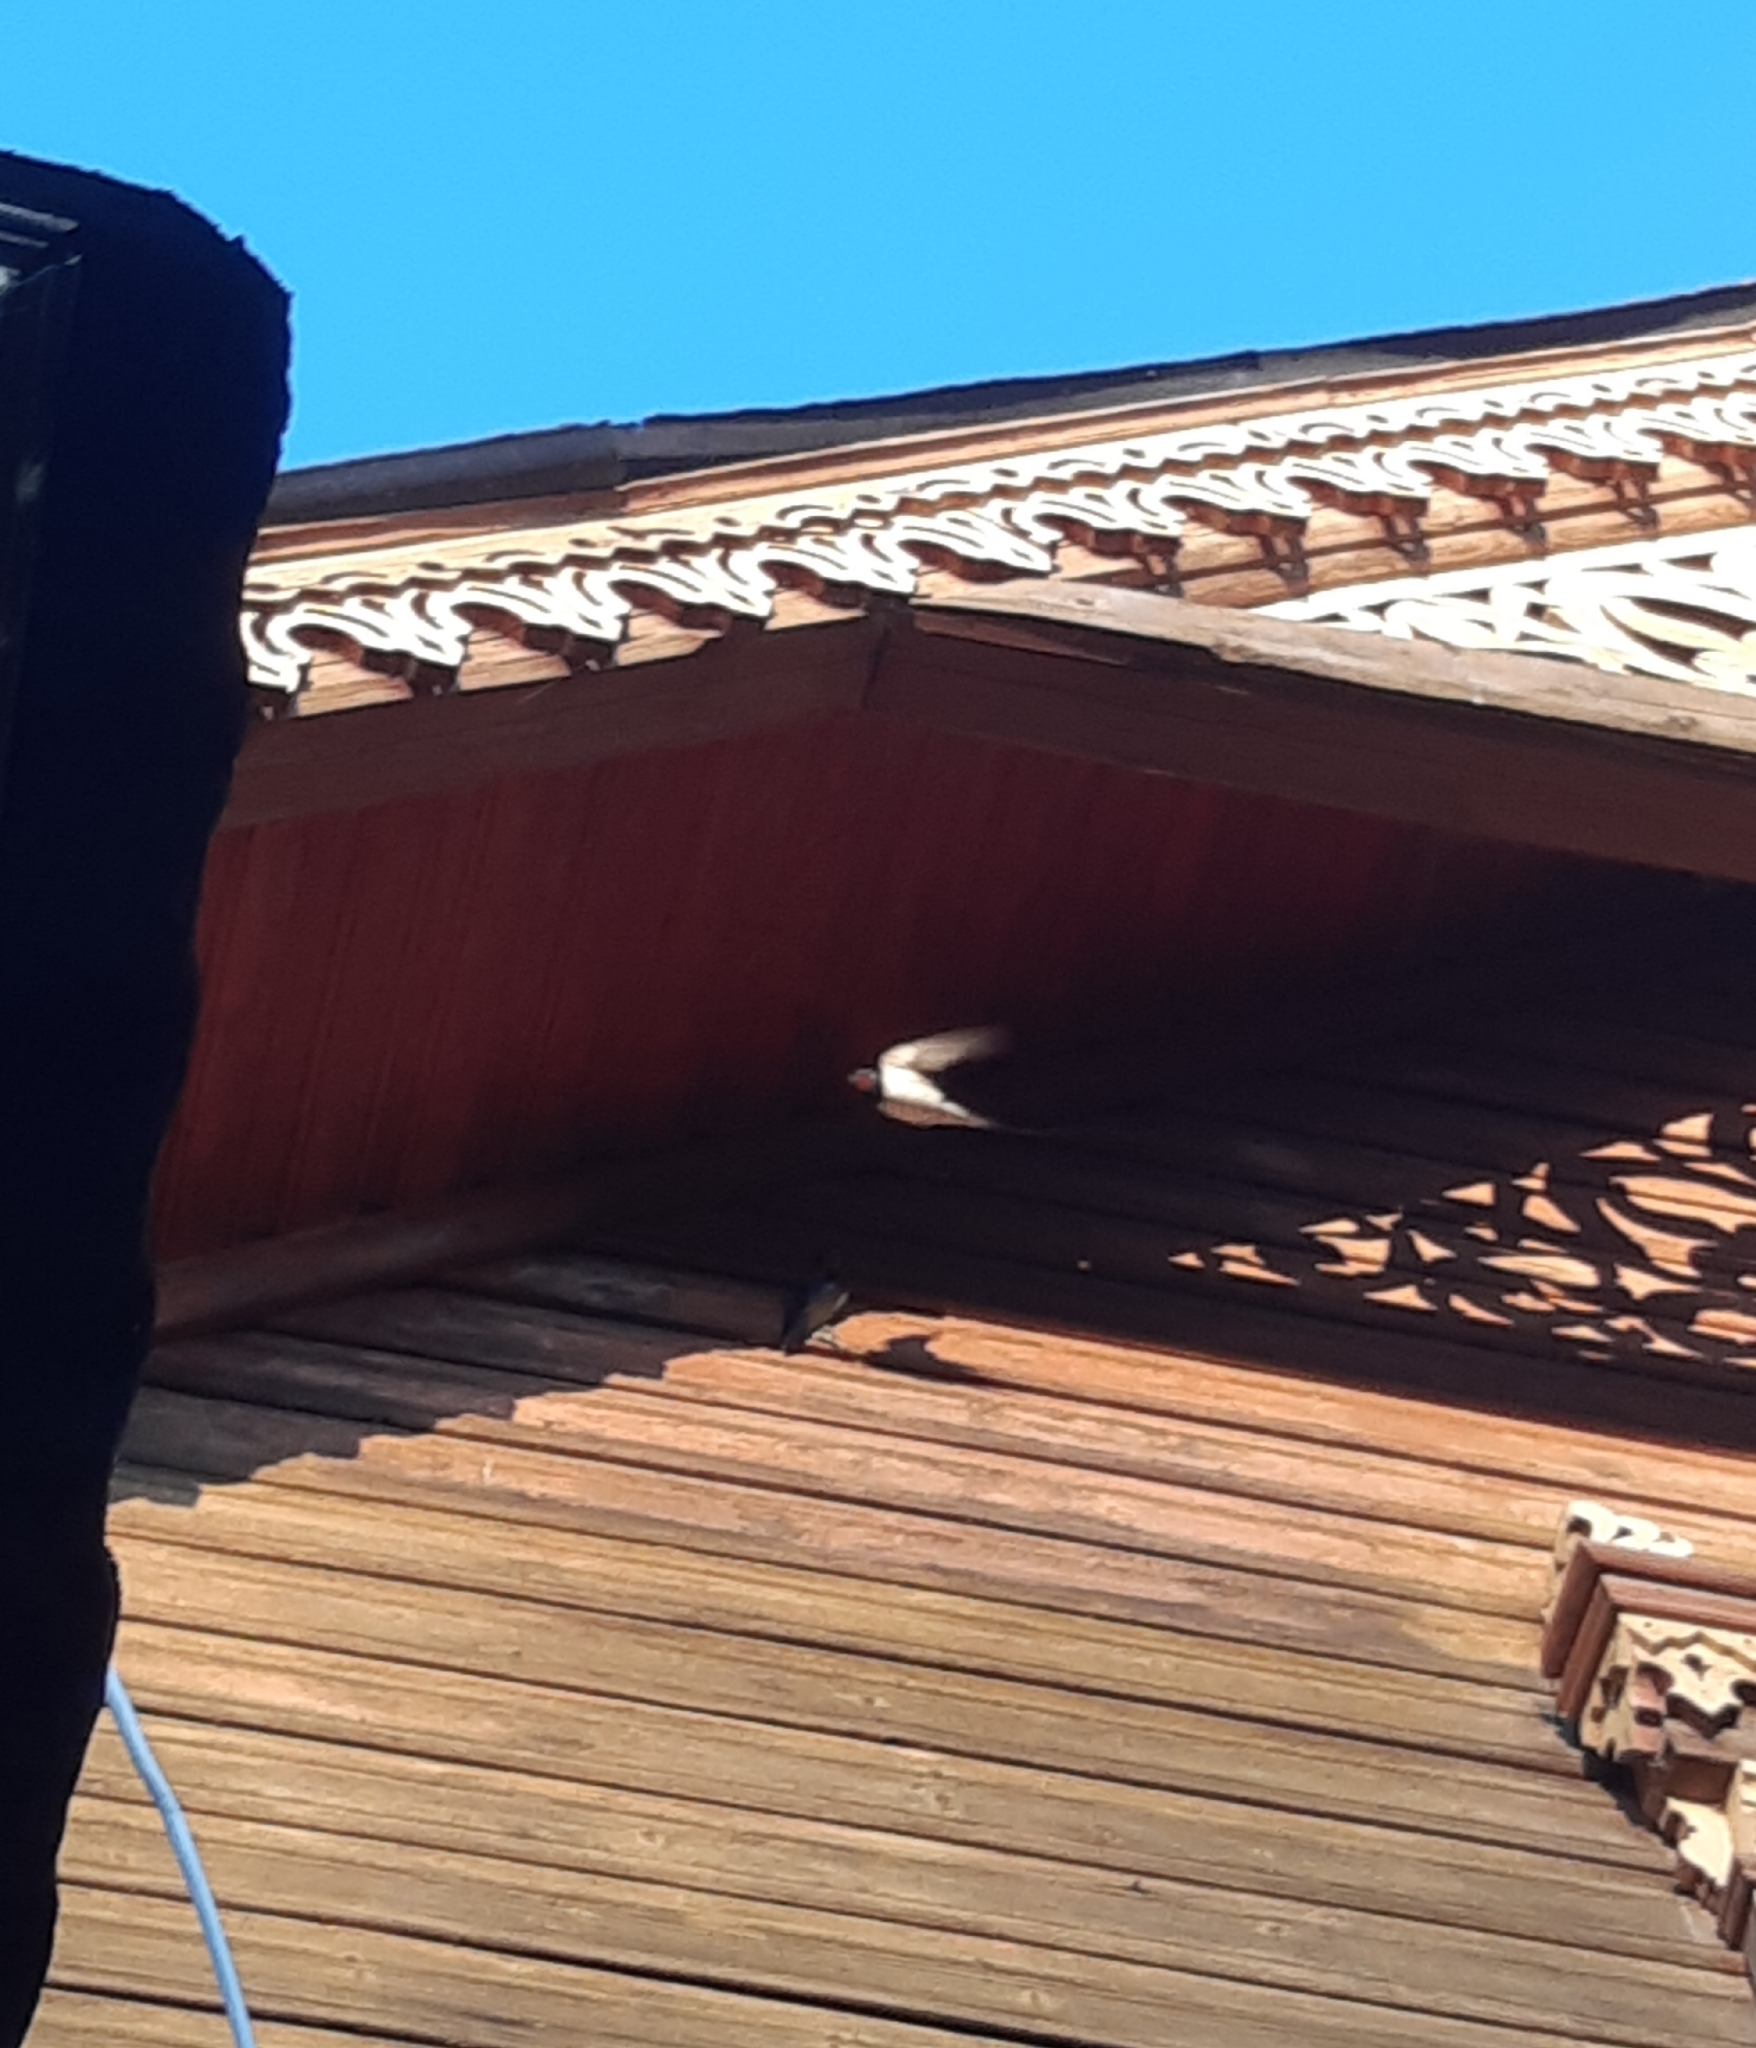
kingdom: Animalia
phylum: Chordata
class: Aves
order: Passeriformes
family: Hirundinidae
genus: Hirundo
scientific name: Hirundo rustica
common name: Barn swallow
